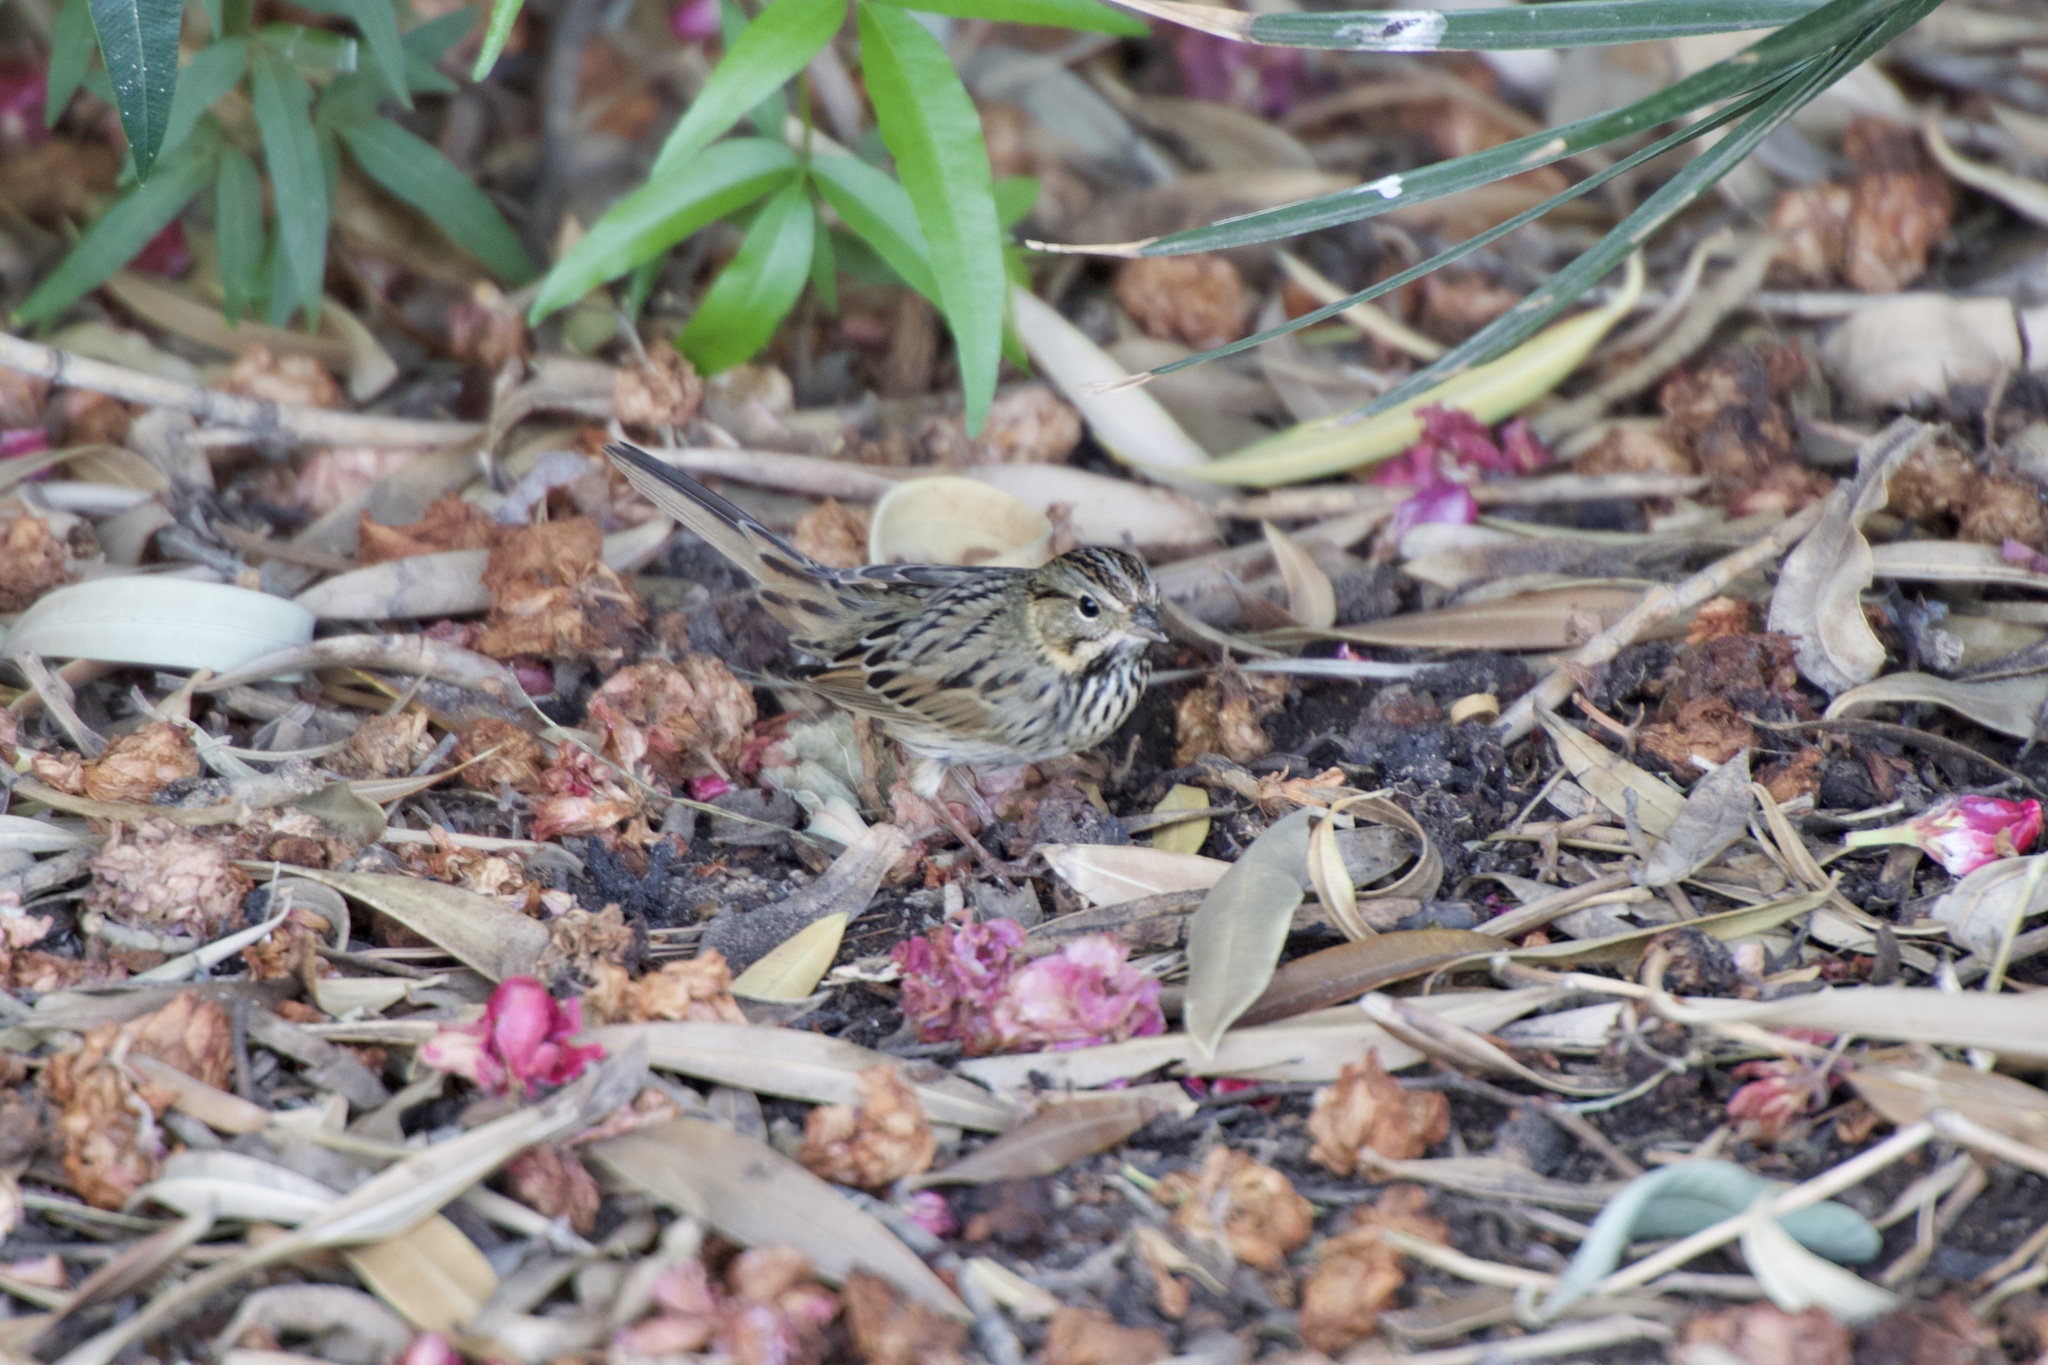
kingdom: Animalia
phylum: Chordata
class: Aves
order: Passeriformes
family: Passerellidae
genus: Melospiza
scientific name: Melospiza lincolnii
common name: Lincoln's sparrow
